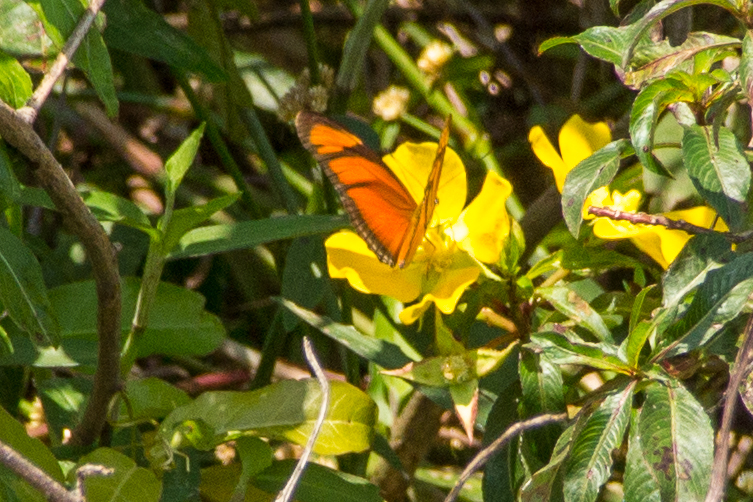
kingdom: Animalia
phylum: Arthropoda
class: Insecta
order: Lepidoptera
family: Nymphalidae
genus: Dryas
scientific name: Dryas iulia
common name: Flambeau
